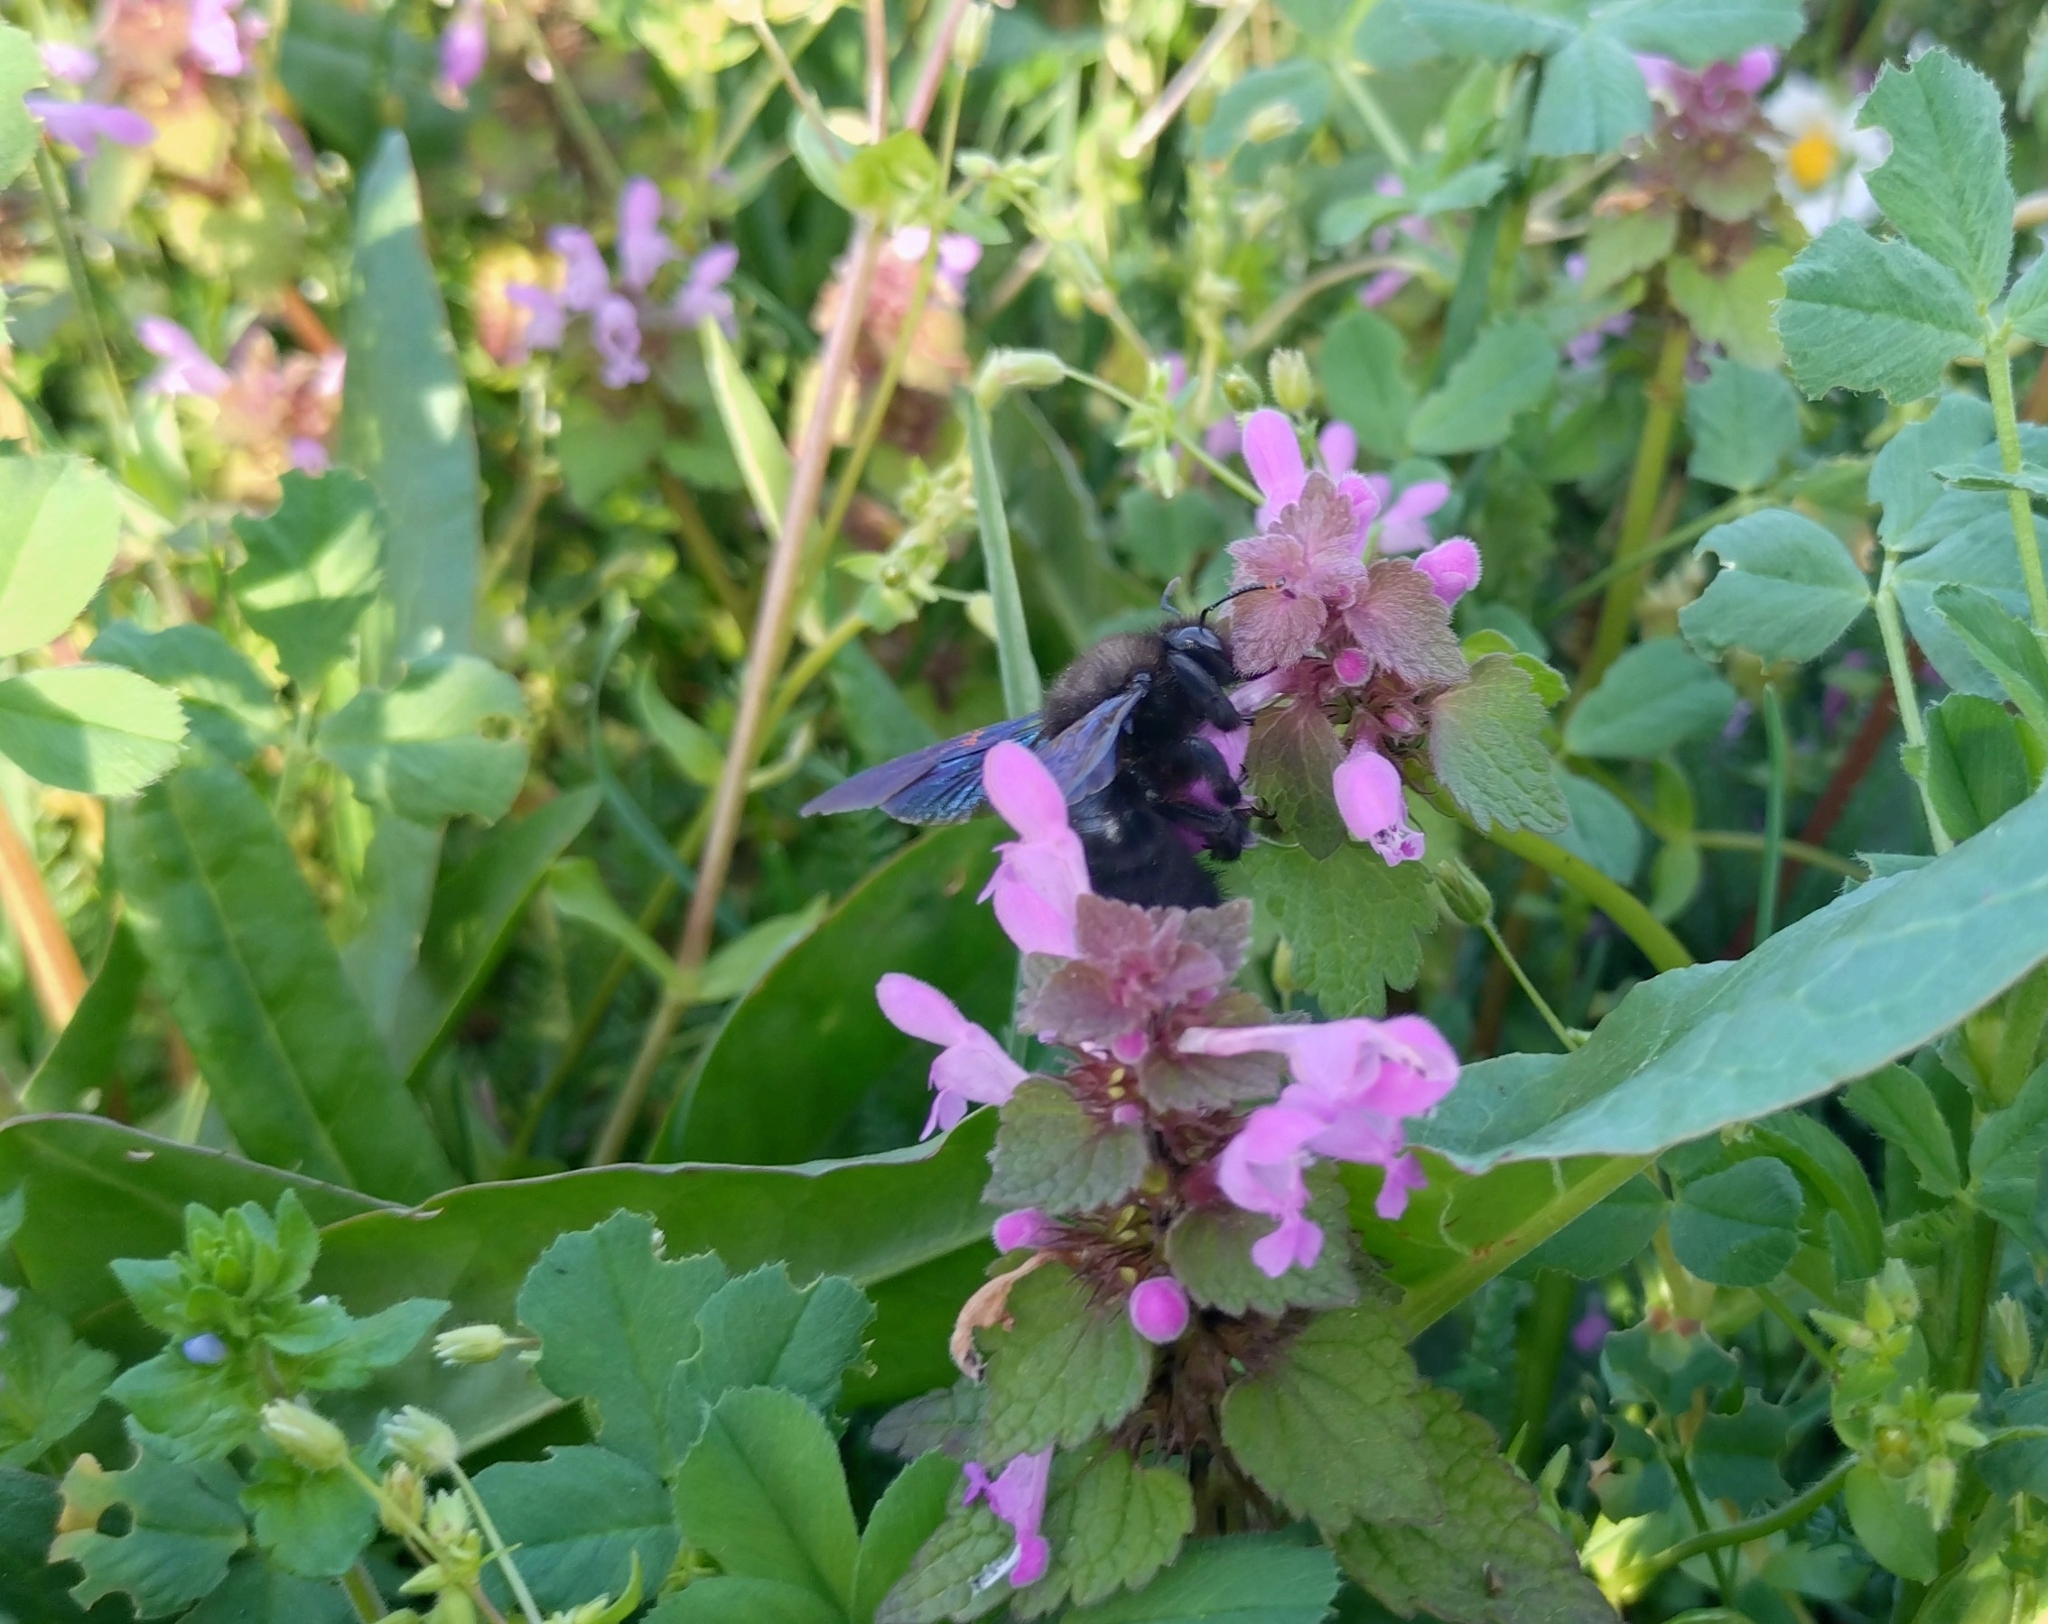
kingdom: Animalia
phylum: Arthropoda
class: Insecta
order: Hymenoptera
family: Apidae
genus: Xylocopa
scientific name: Xylocopa violacea
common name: Violet carpenter bee
